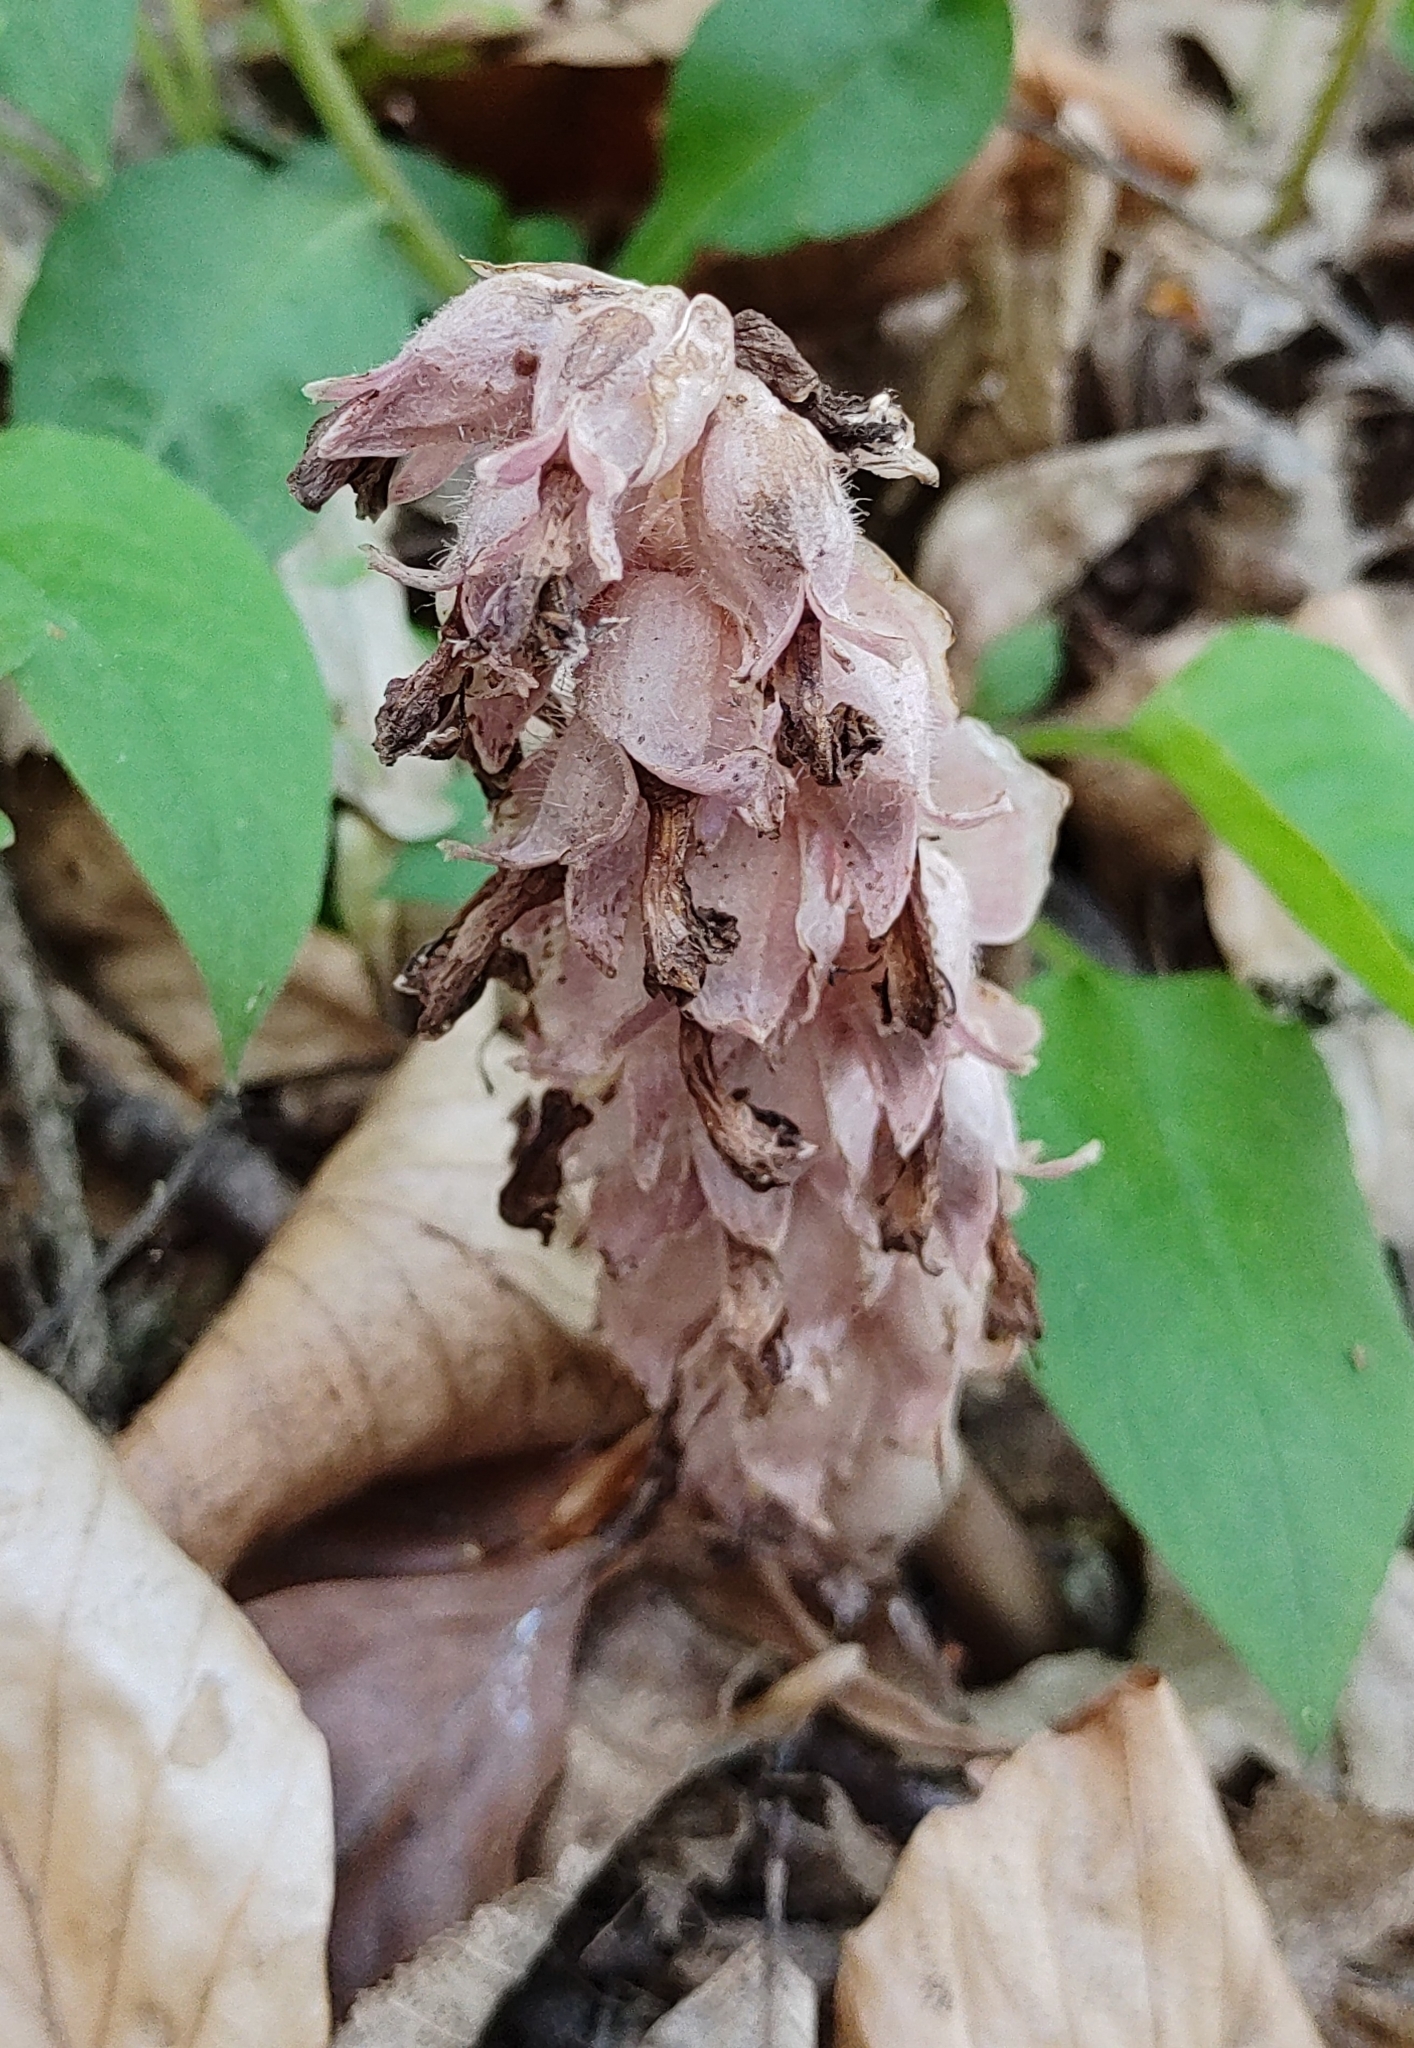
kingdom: Plantae
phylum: Tracheophyta
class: Magnoliopsida
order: Lamiales
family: Orobanchaceae
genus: Lathraea
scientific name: Lathraea squamaria
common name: Toothwort
